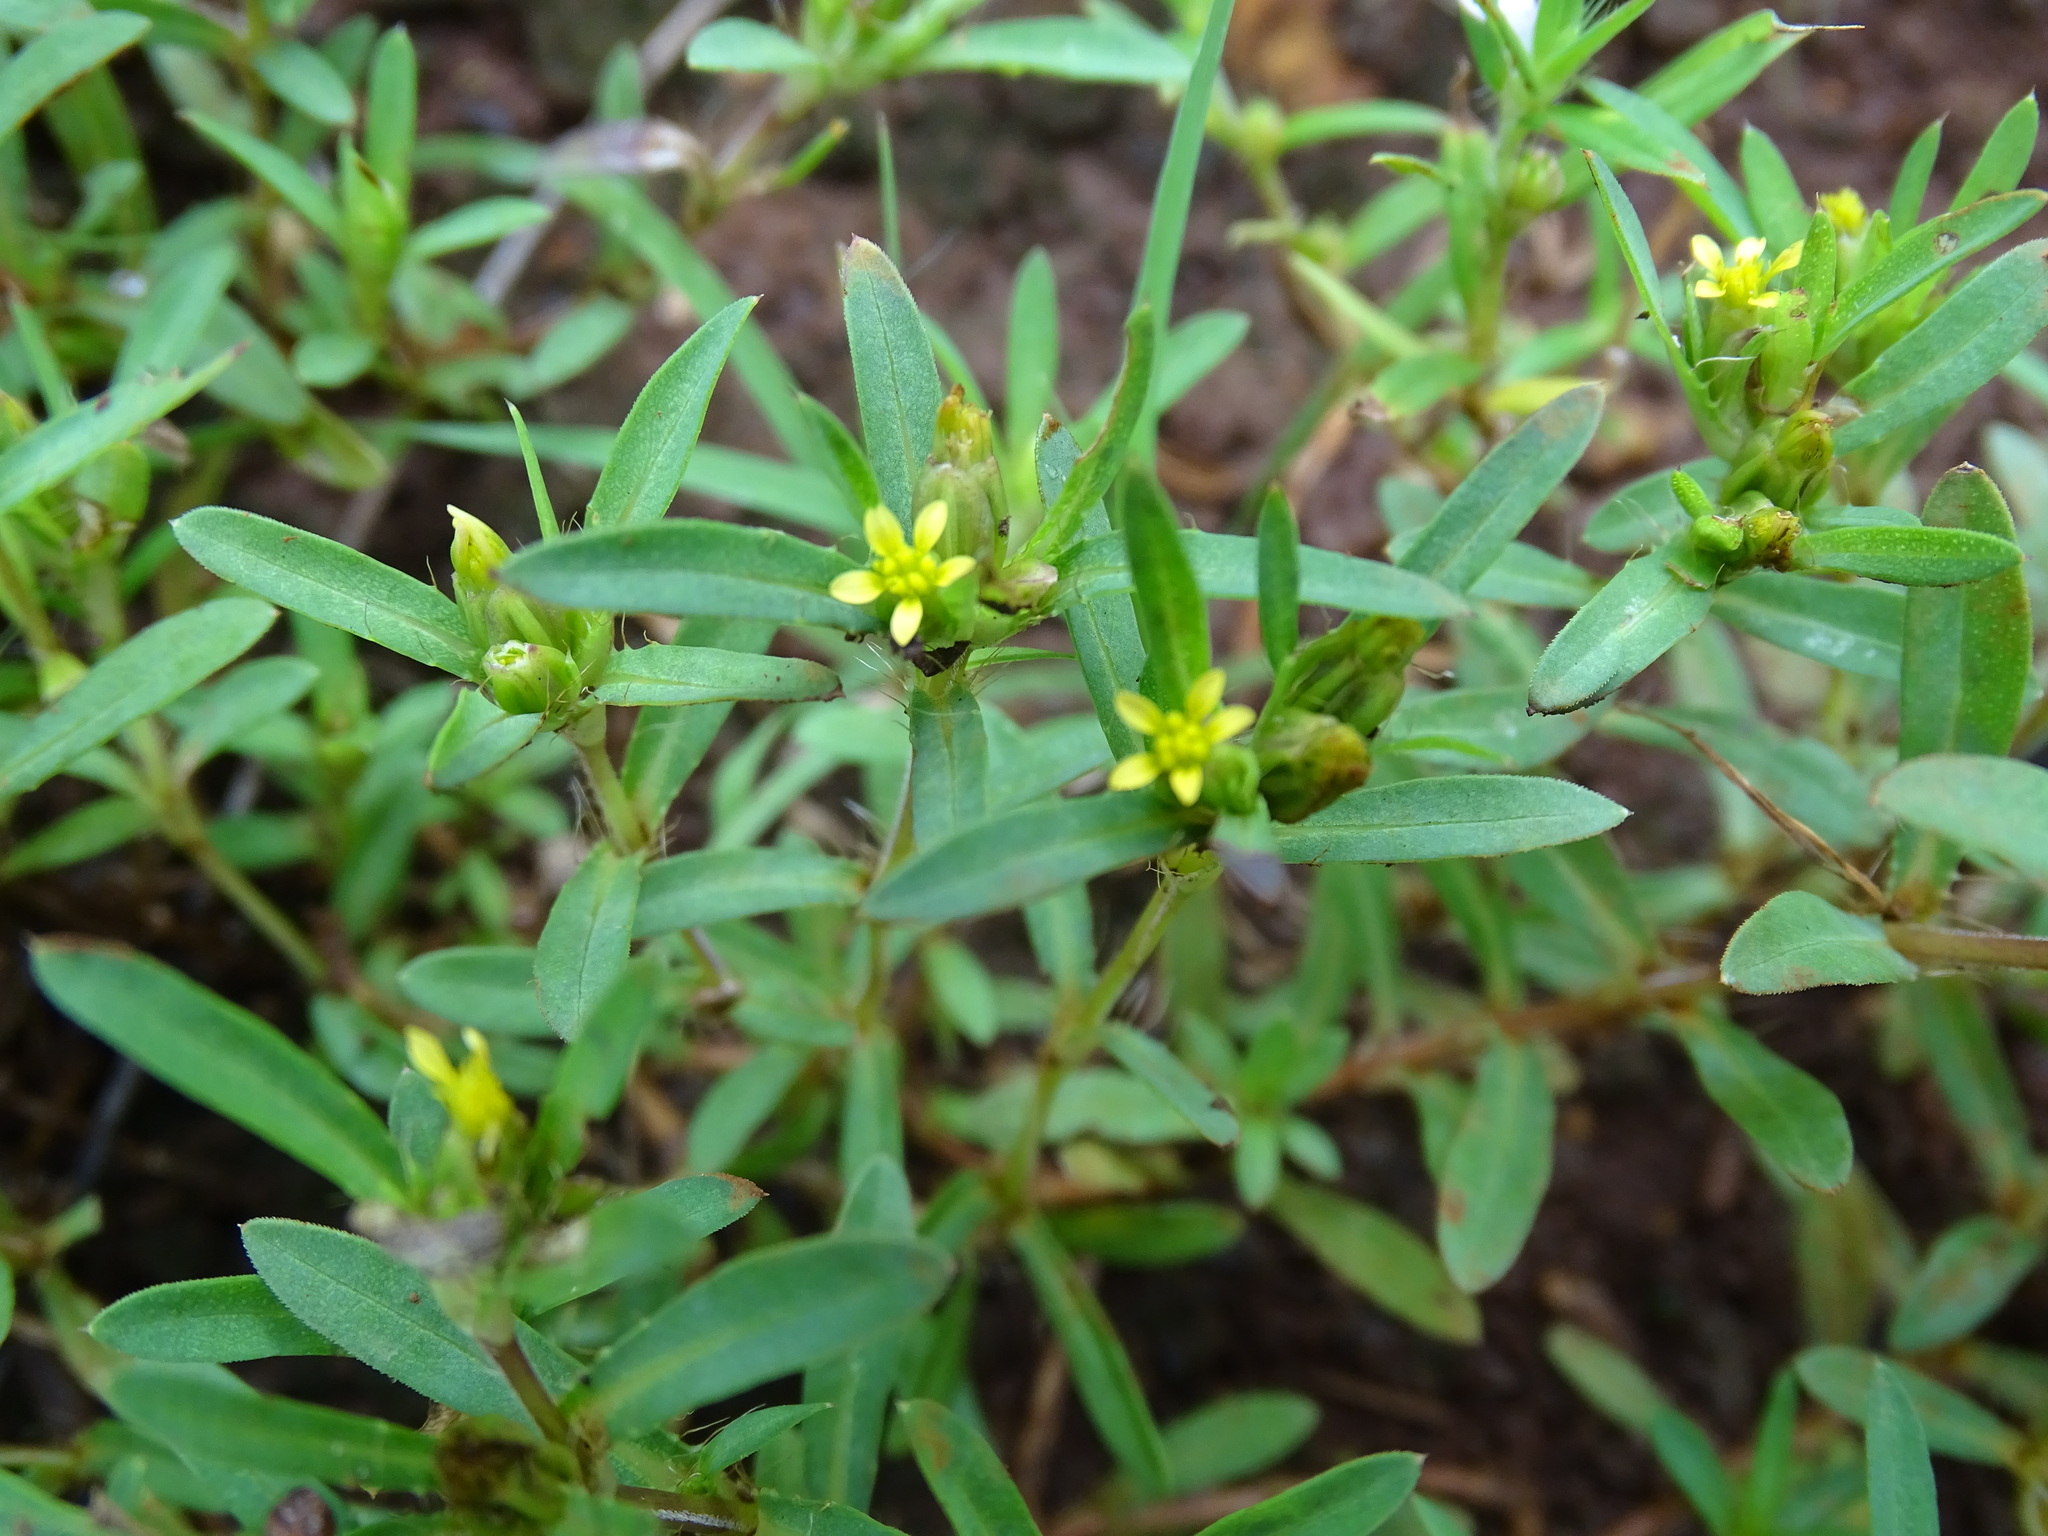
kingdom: Plantae
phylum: Tracheophyta
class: Magnoliopsida
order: Asterales
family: Asteraceae
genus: Pectis
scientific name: Pectis prostrata
